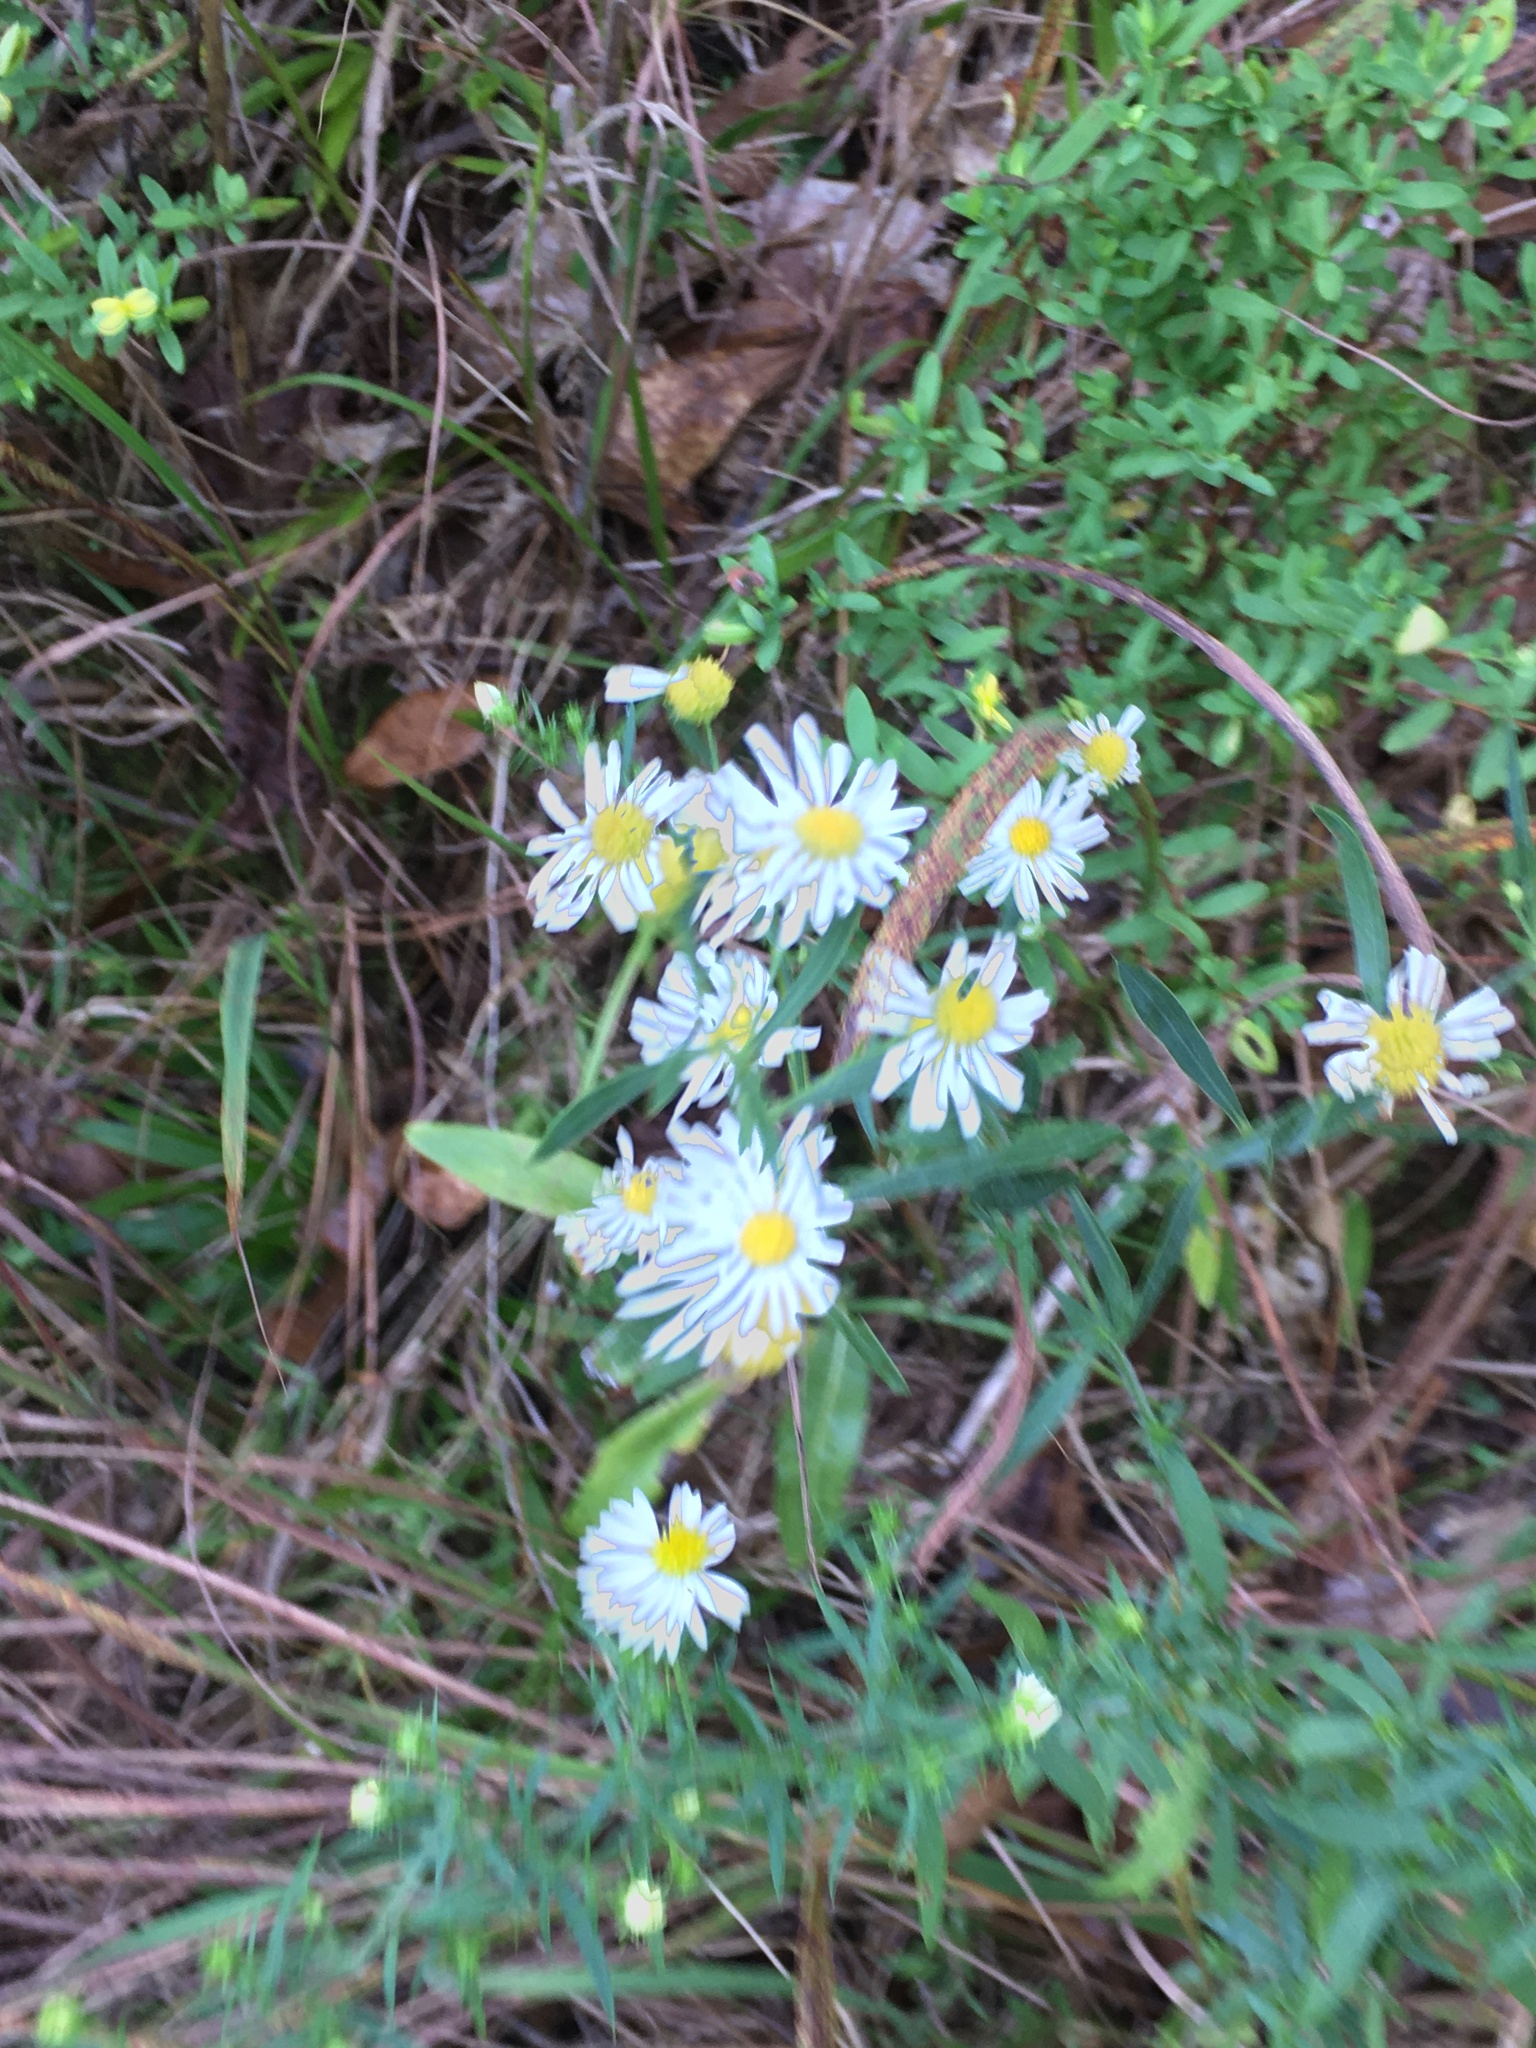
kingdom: Plantae
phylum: Tracheophyta
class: Magnoliopsida
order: Asterales
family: Asteraceae
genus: Symphyotrichum
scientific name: Symphyotrichum pilosum
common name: Awl aster
